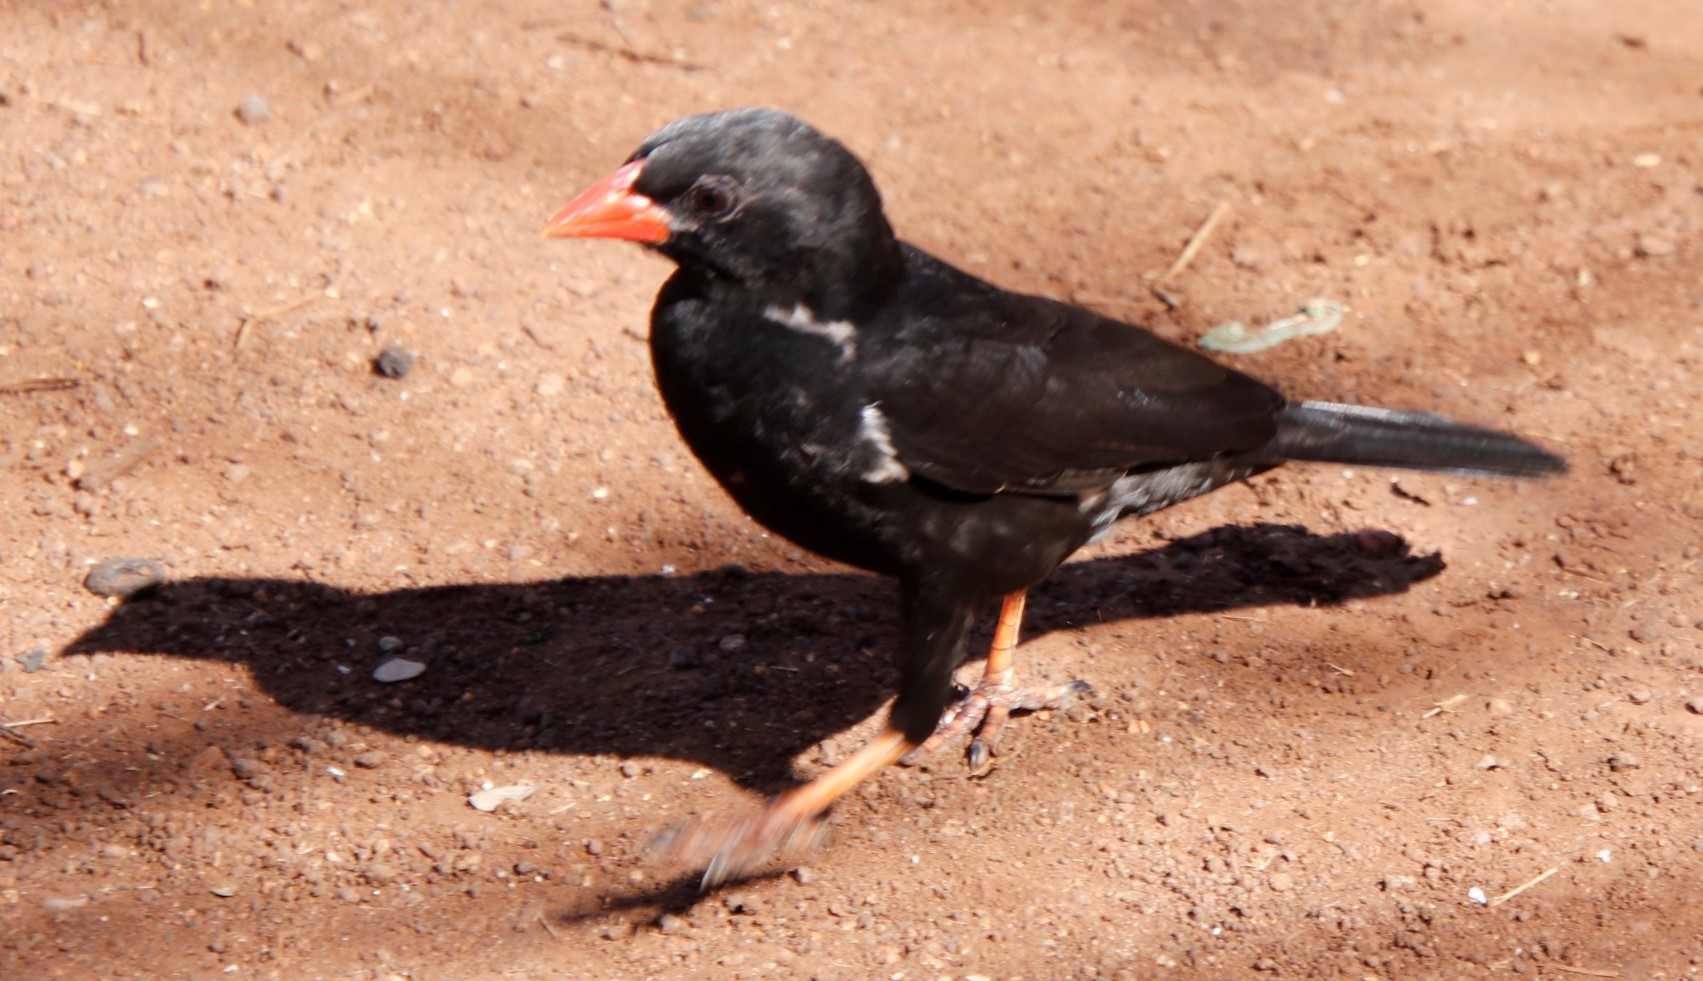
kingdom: Animalia
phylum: Chordata
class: Aves
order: Passeriformes
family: Ploceidae
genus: Bubalornis
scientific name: Bubalornis niger
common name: Red-billed buffalo weaver
